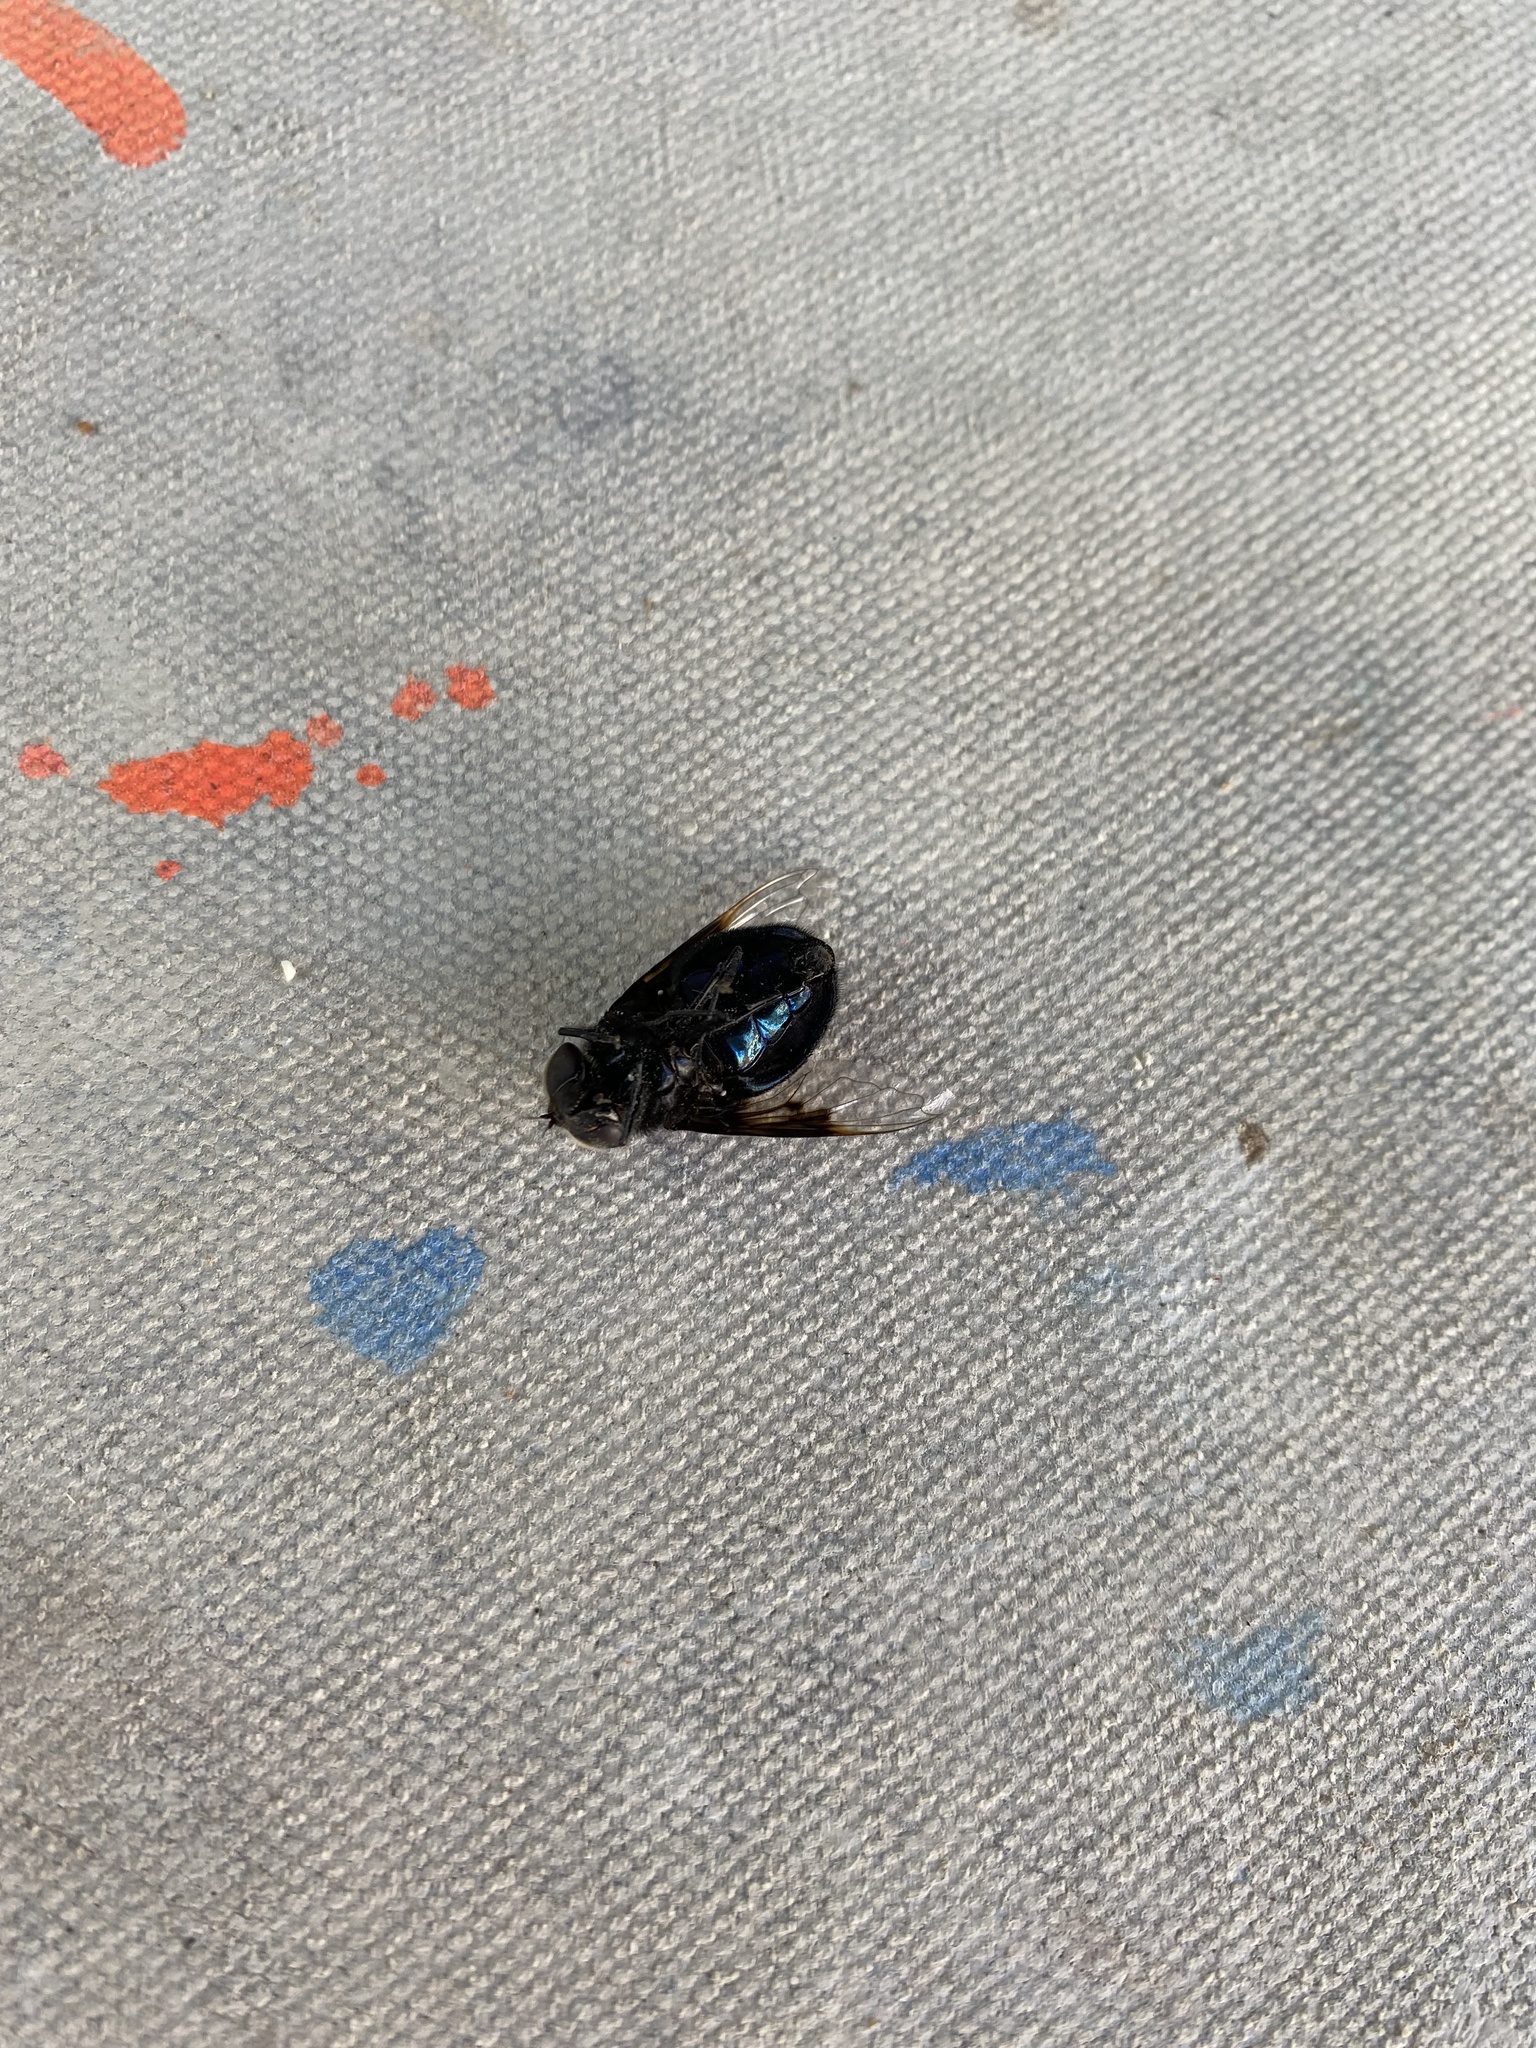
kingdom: Animalia
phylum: Arthropoda
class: Insecta
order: Diptera
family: Syrphidae
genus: Copestylum
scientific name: Copestylum mexicanum
